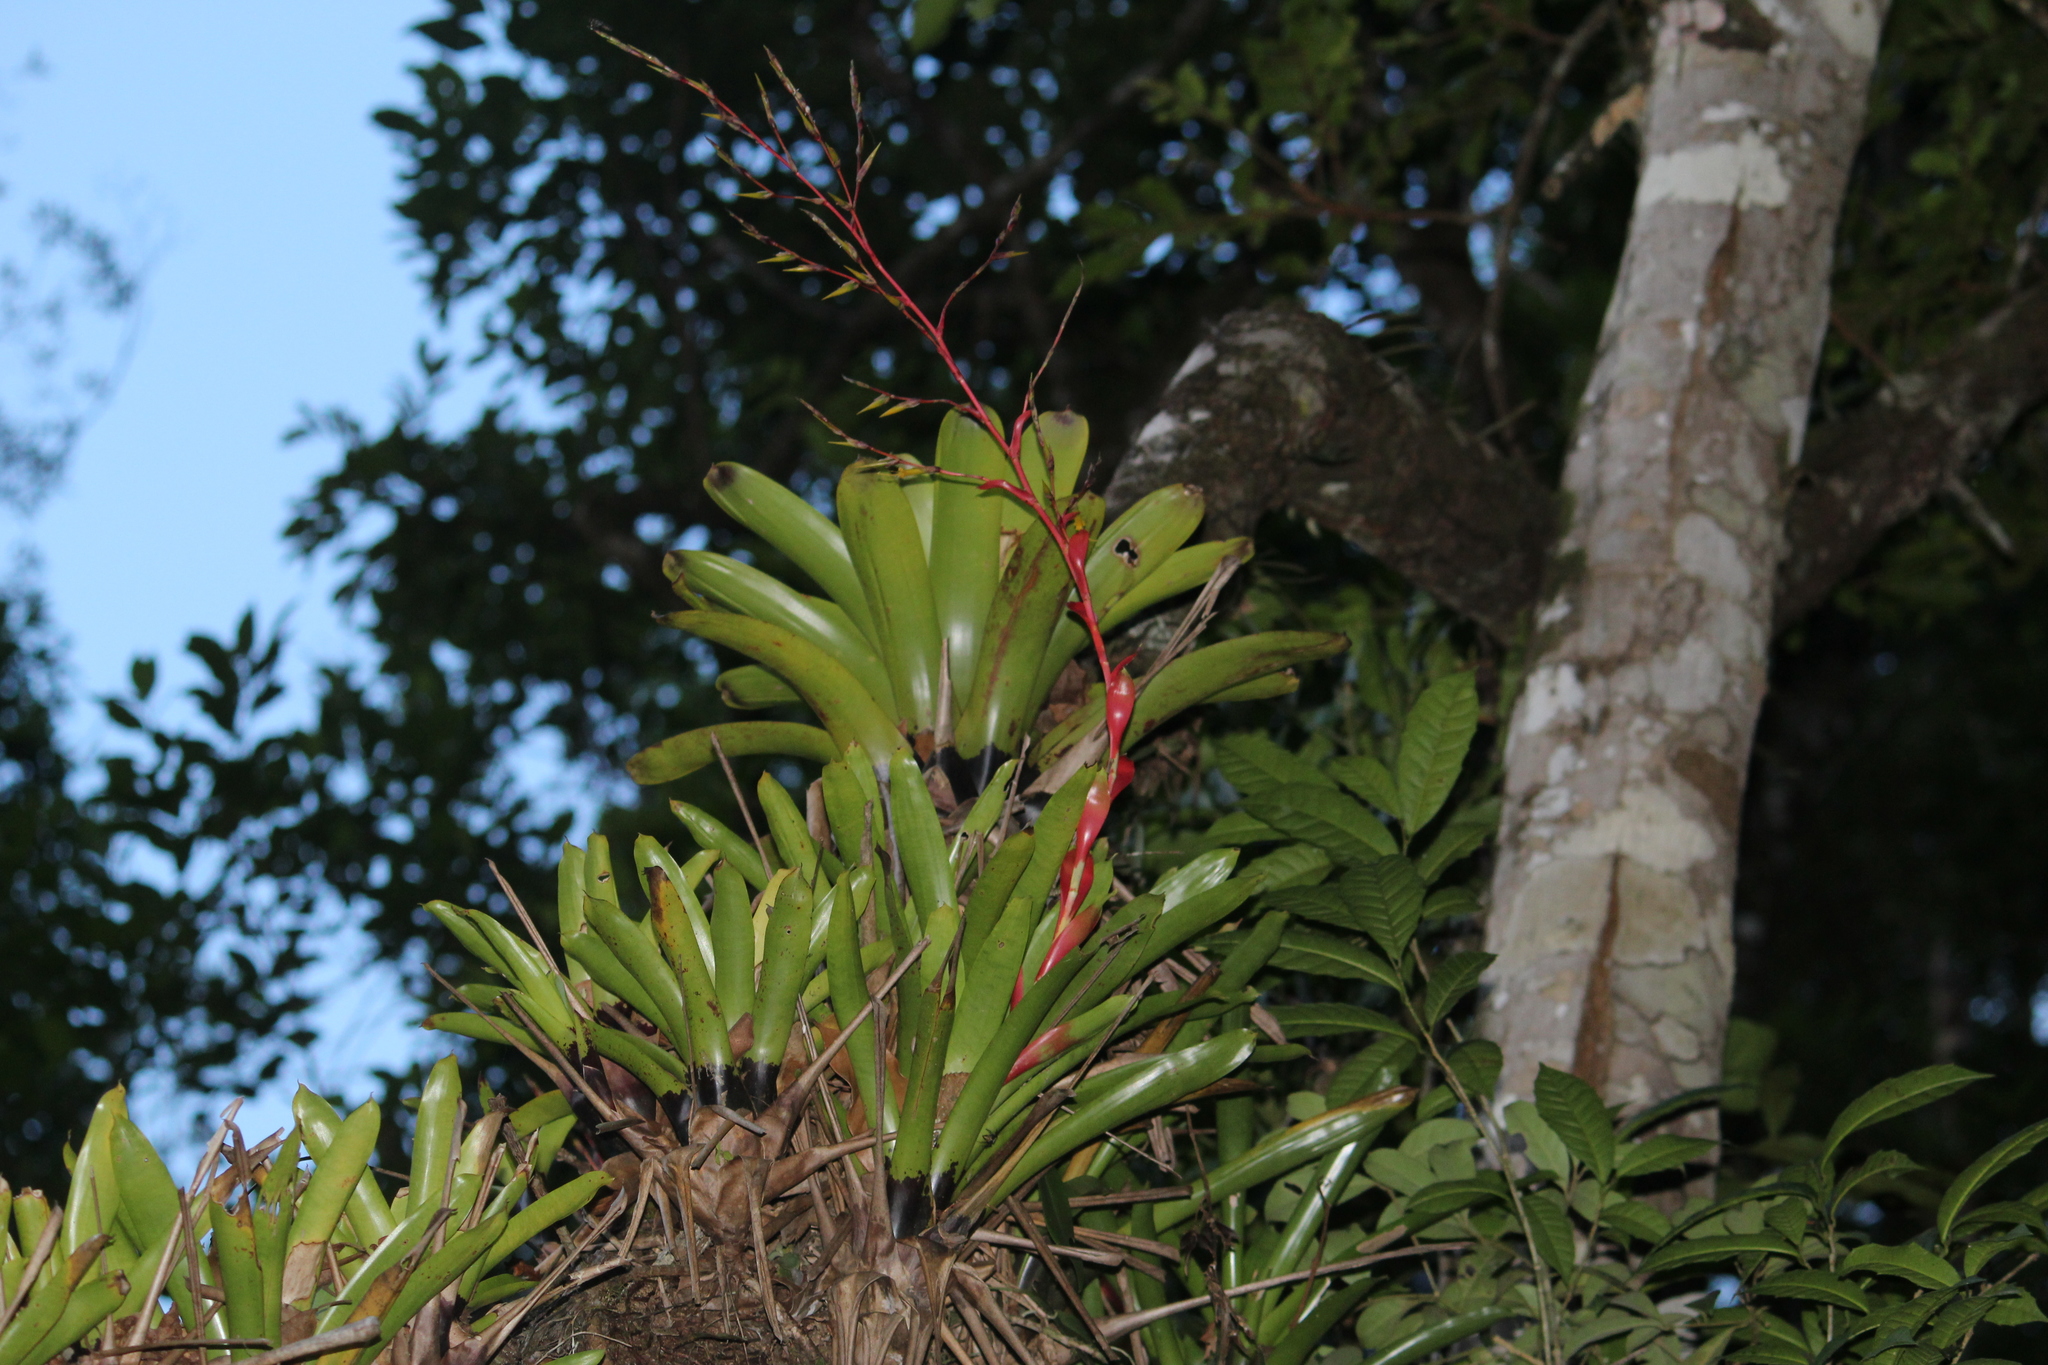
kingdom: Plantae
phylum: Tracheophyta
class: Liliopsida
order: Poales
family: Bromeliaceae
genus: Vriesea
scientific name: Vriesea vagans
